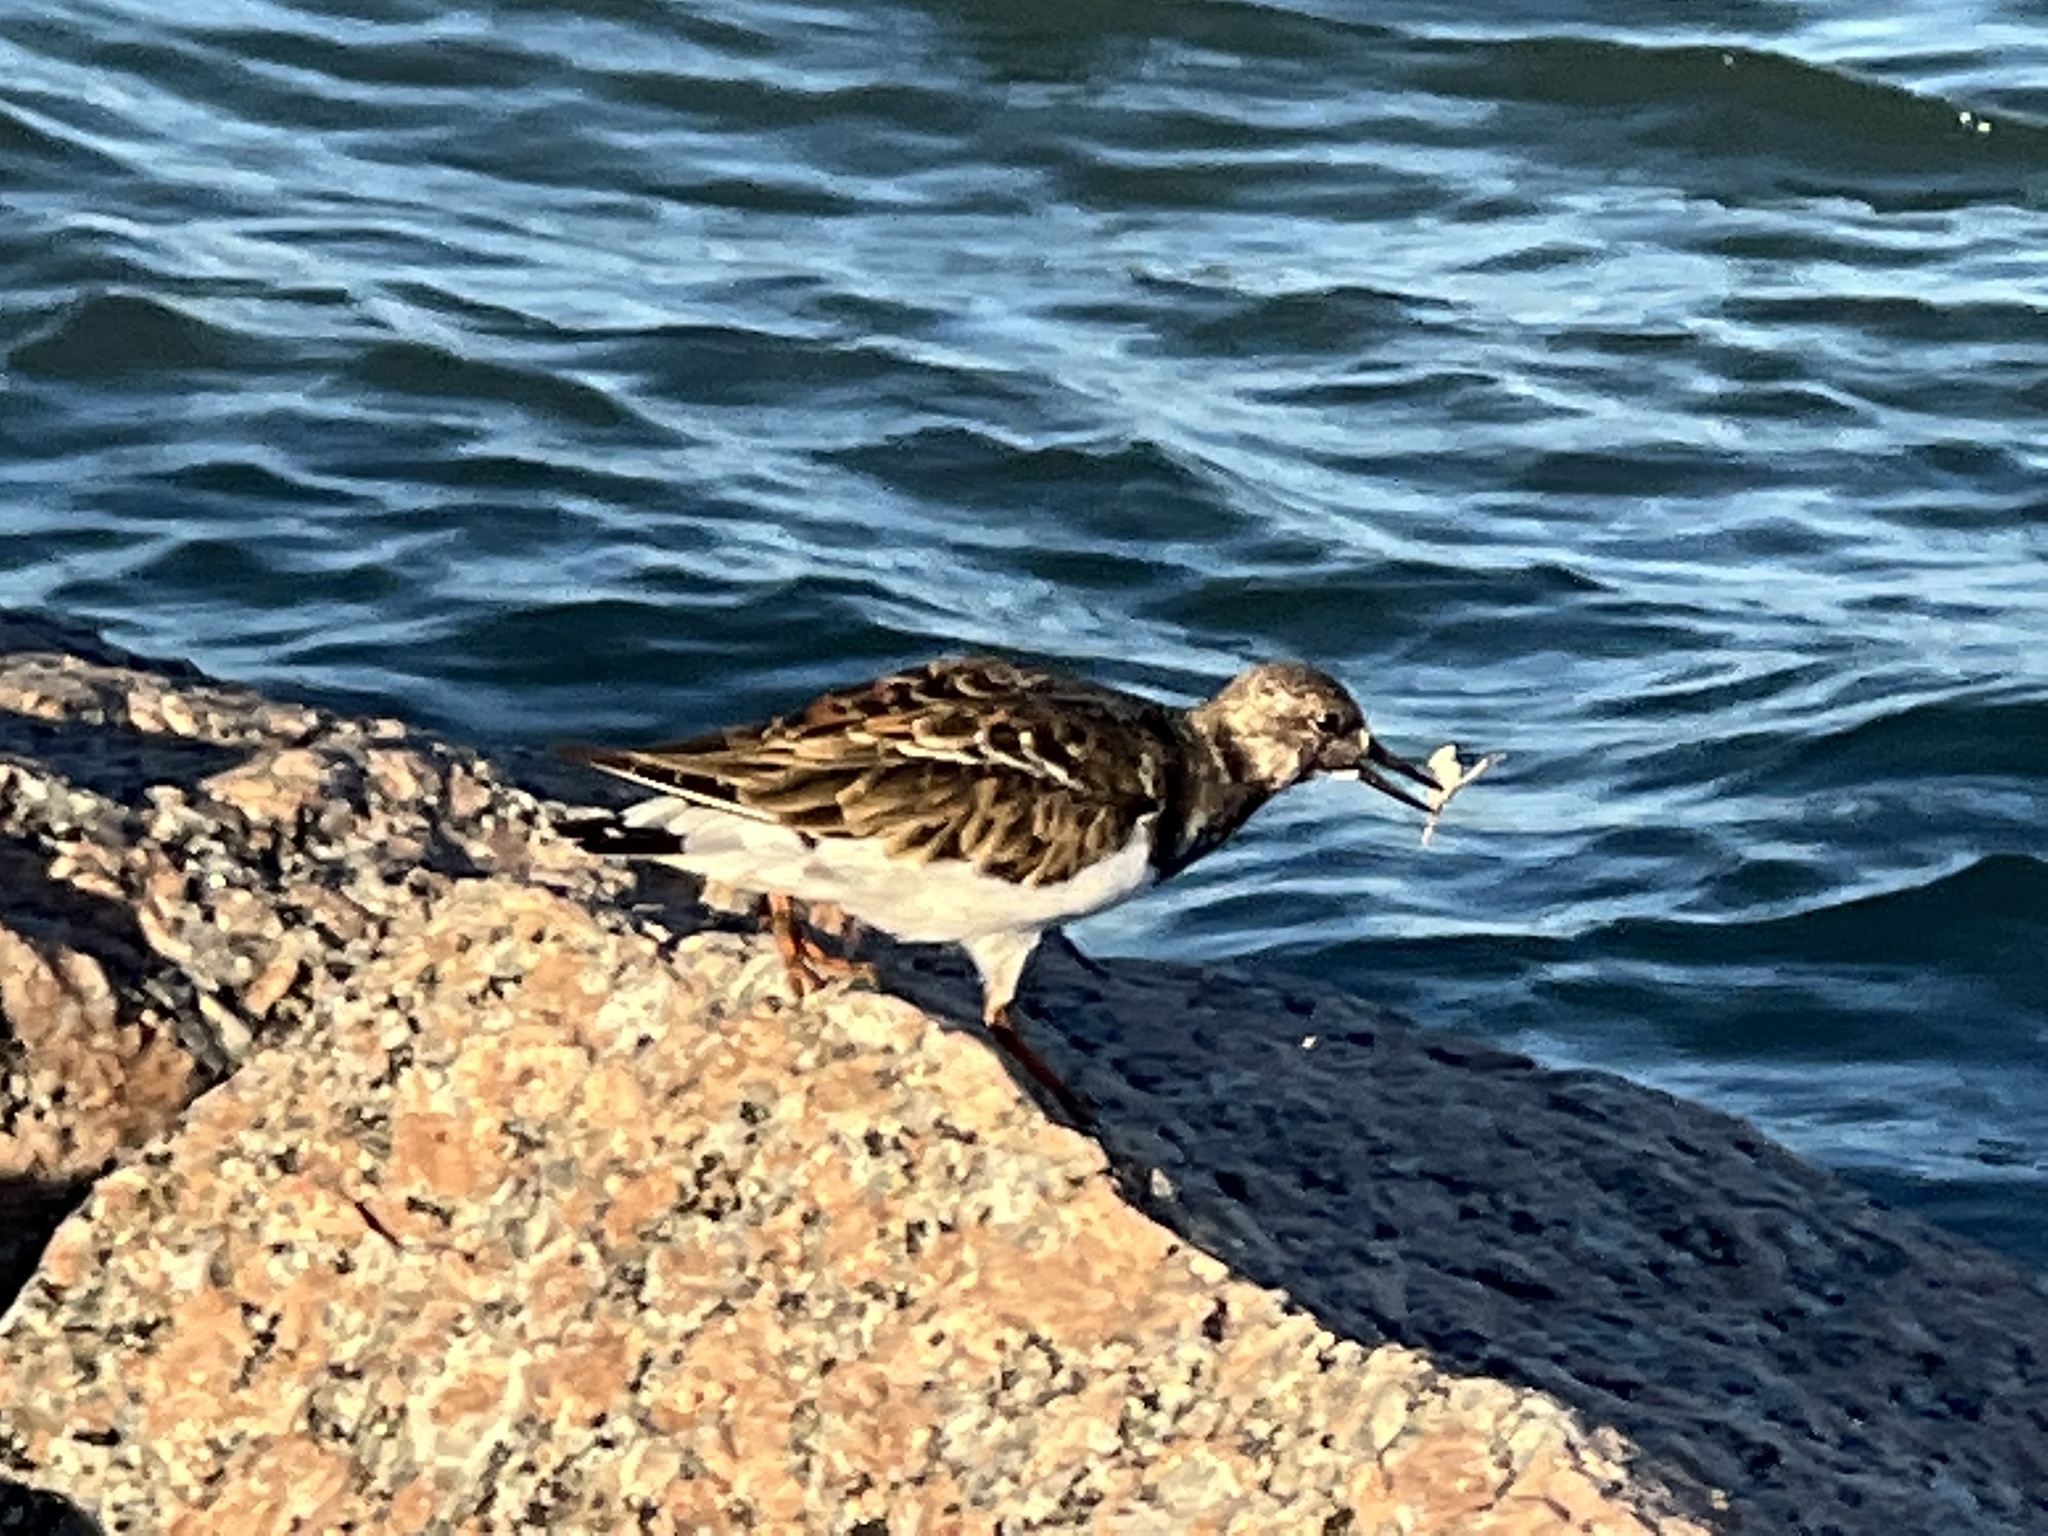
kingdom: Animalia
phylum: Chordata
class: Aves
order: Charadriiformes
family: Scolopacidae
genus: Arenaria
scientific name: Arenaria interpres
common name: Ruddy turnstone
